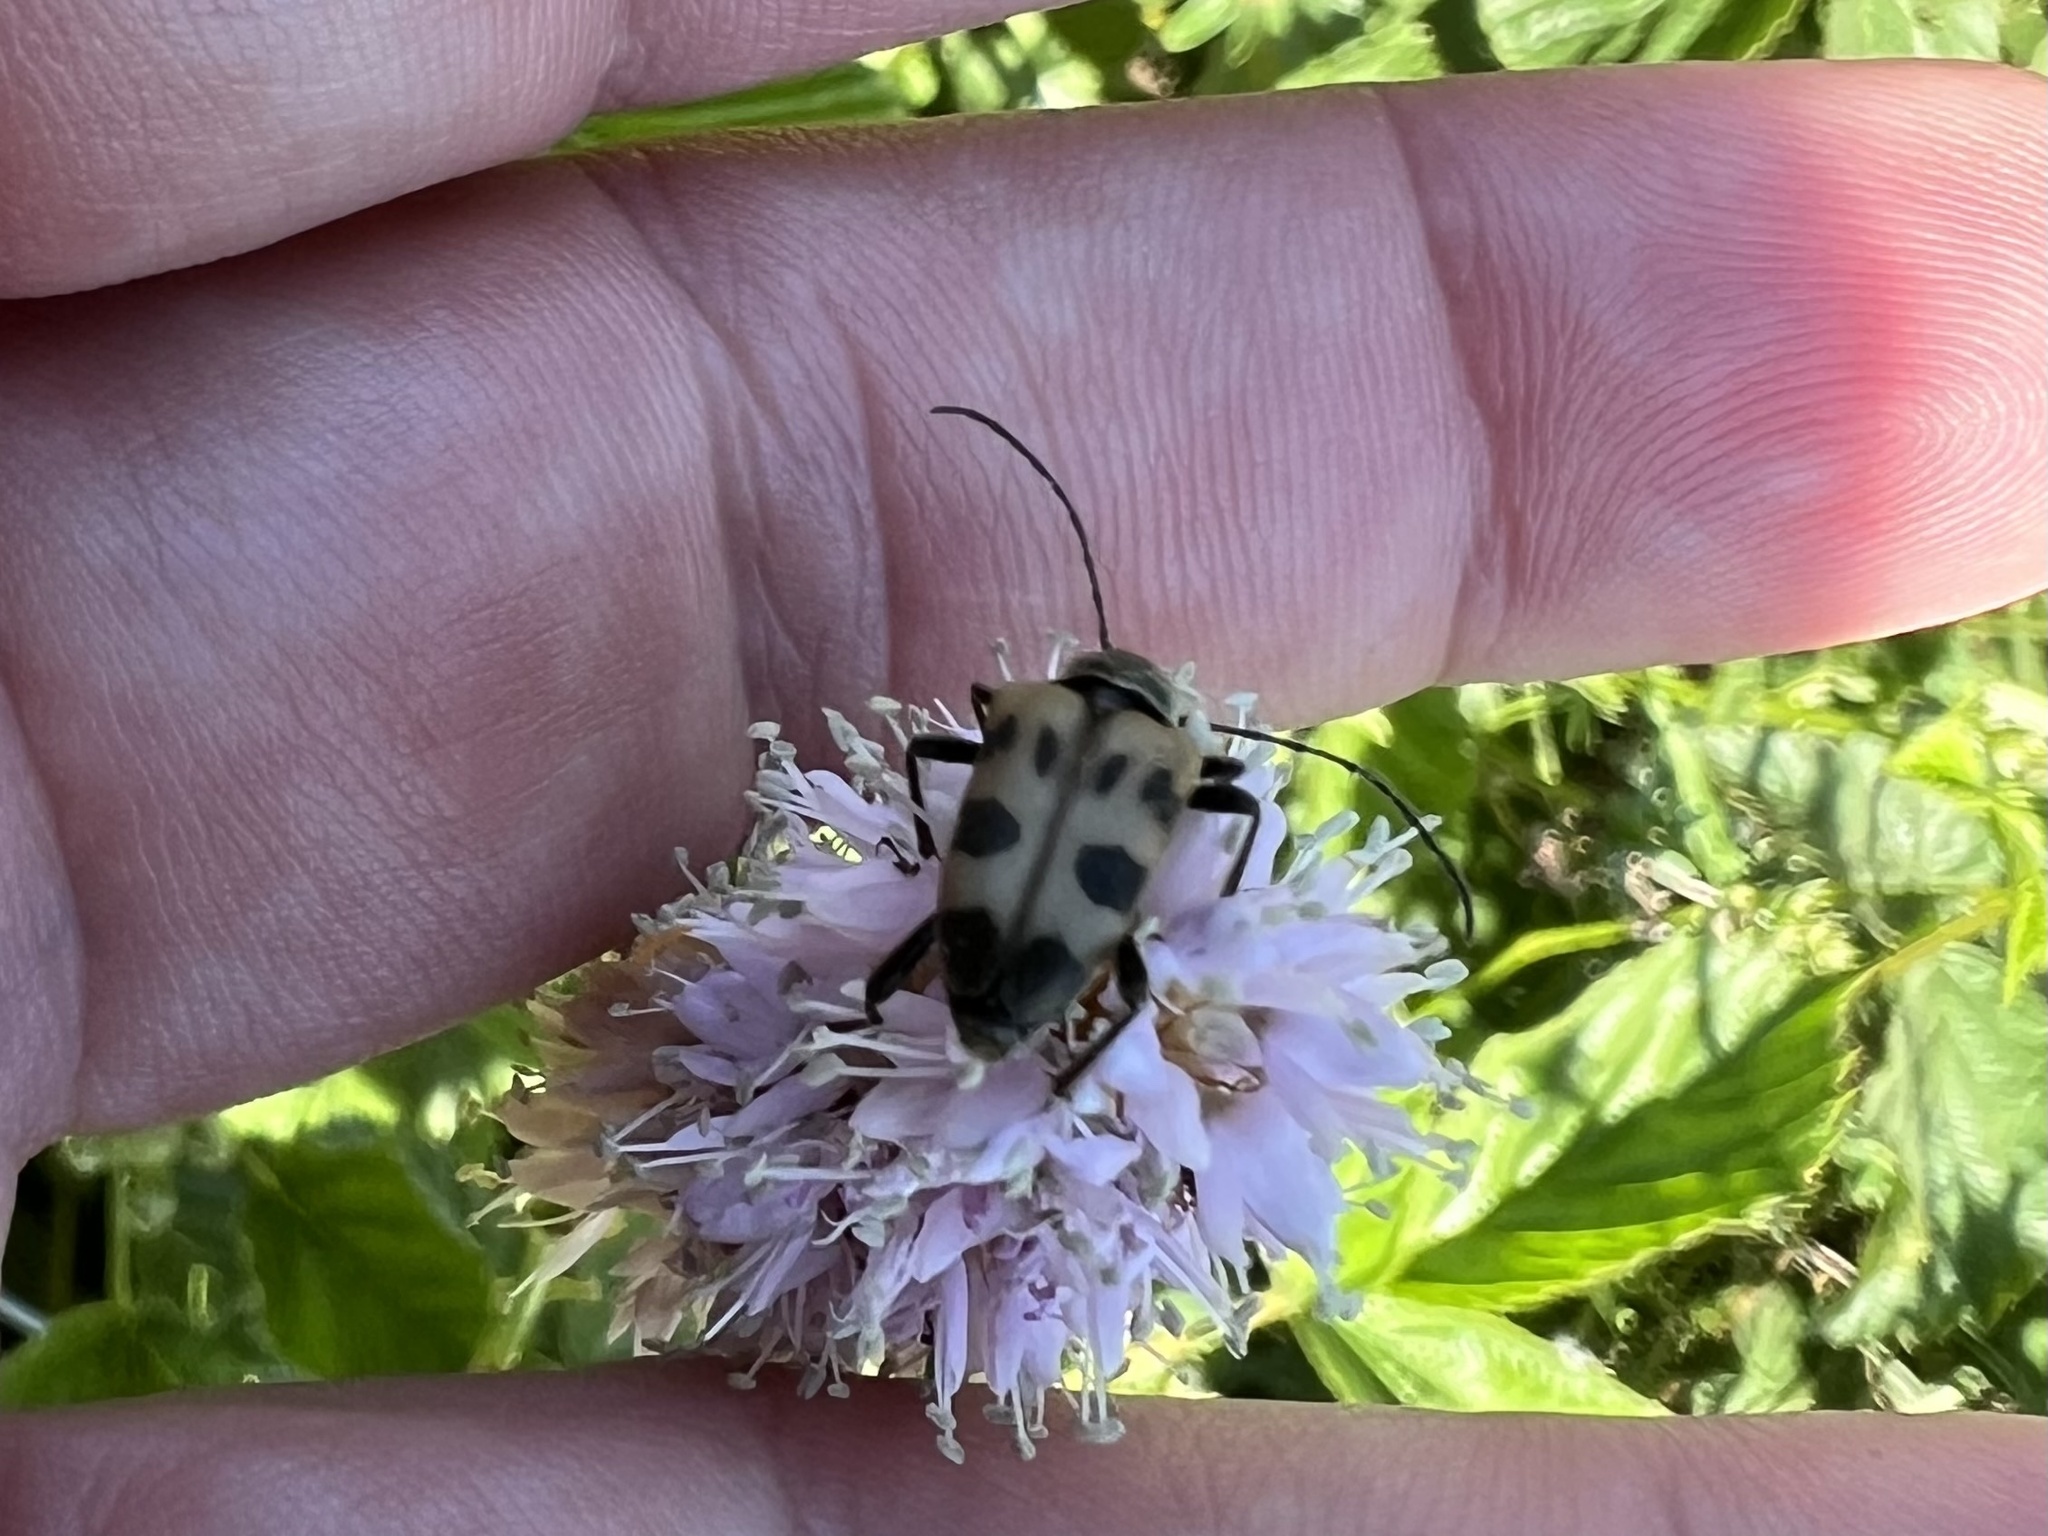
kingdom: Animalia
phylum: Arthropoda
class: Insecta
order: Coleoptera
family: Cerambycidae
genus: Pachytodes
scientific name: Pachytodes cerambyciformis
